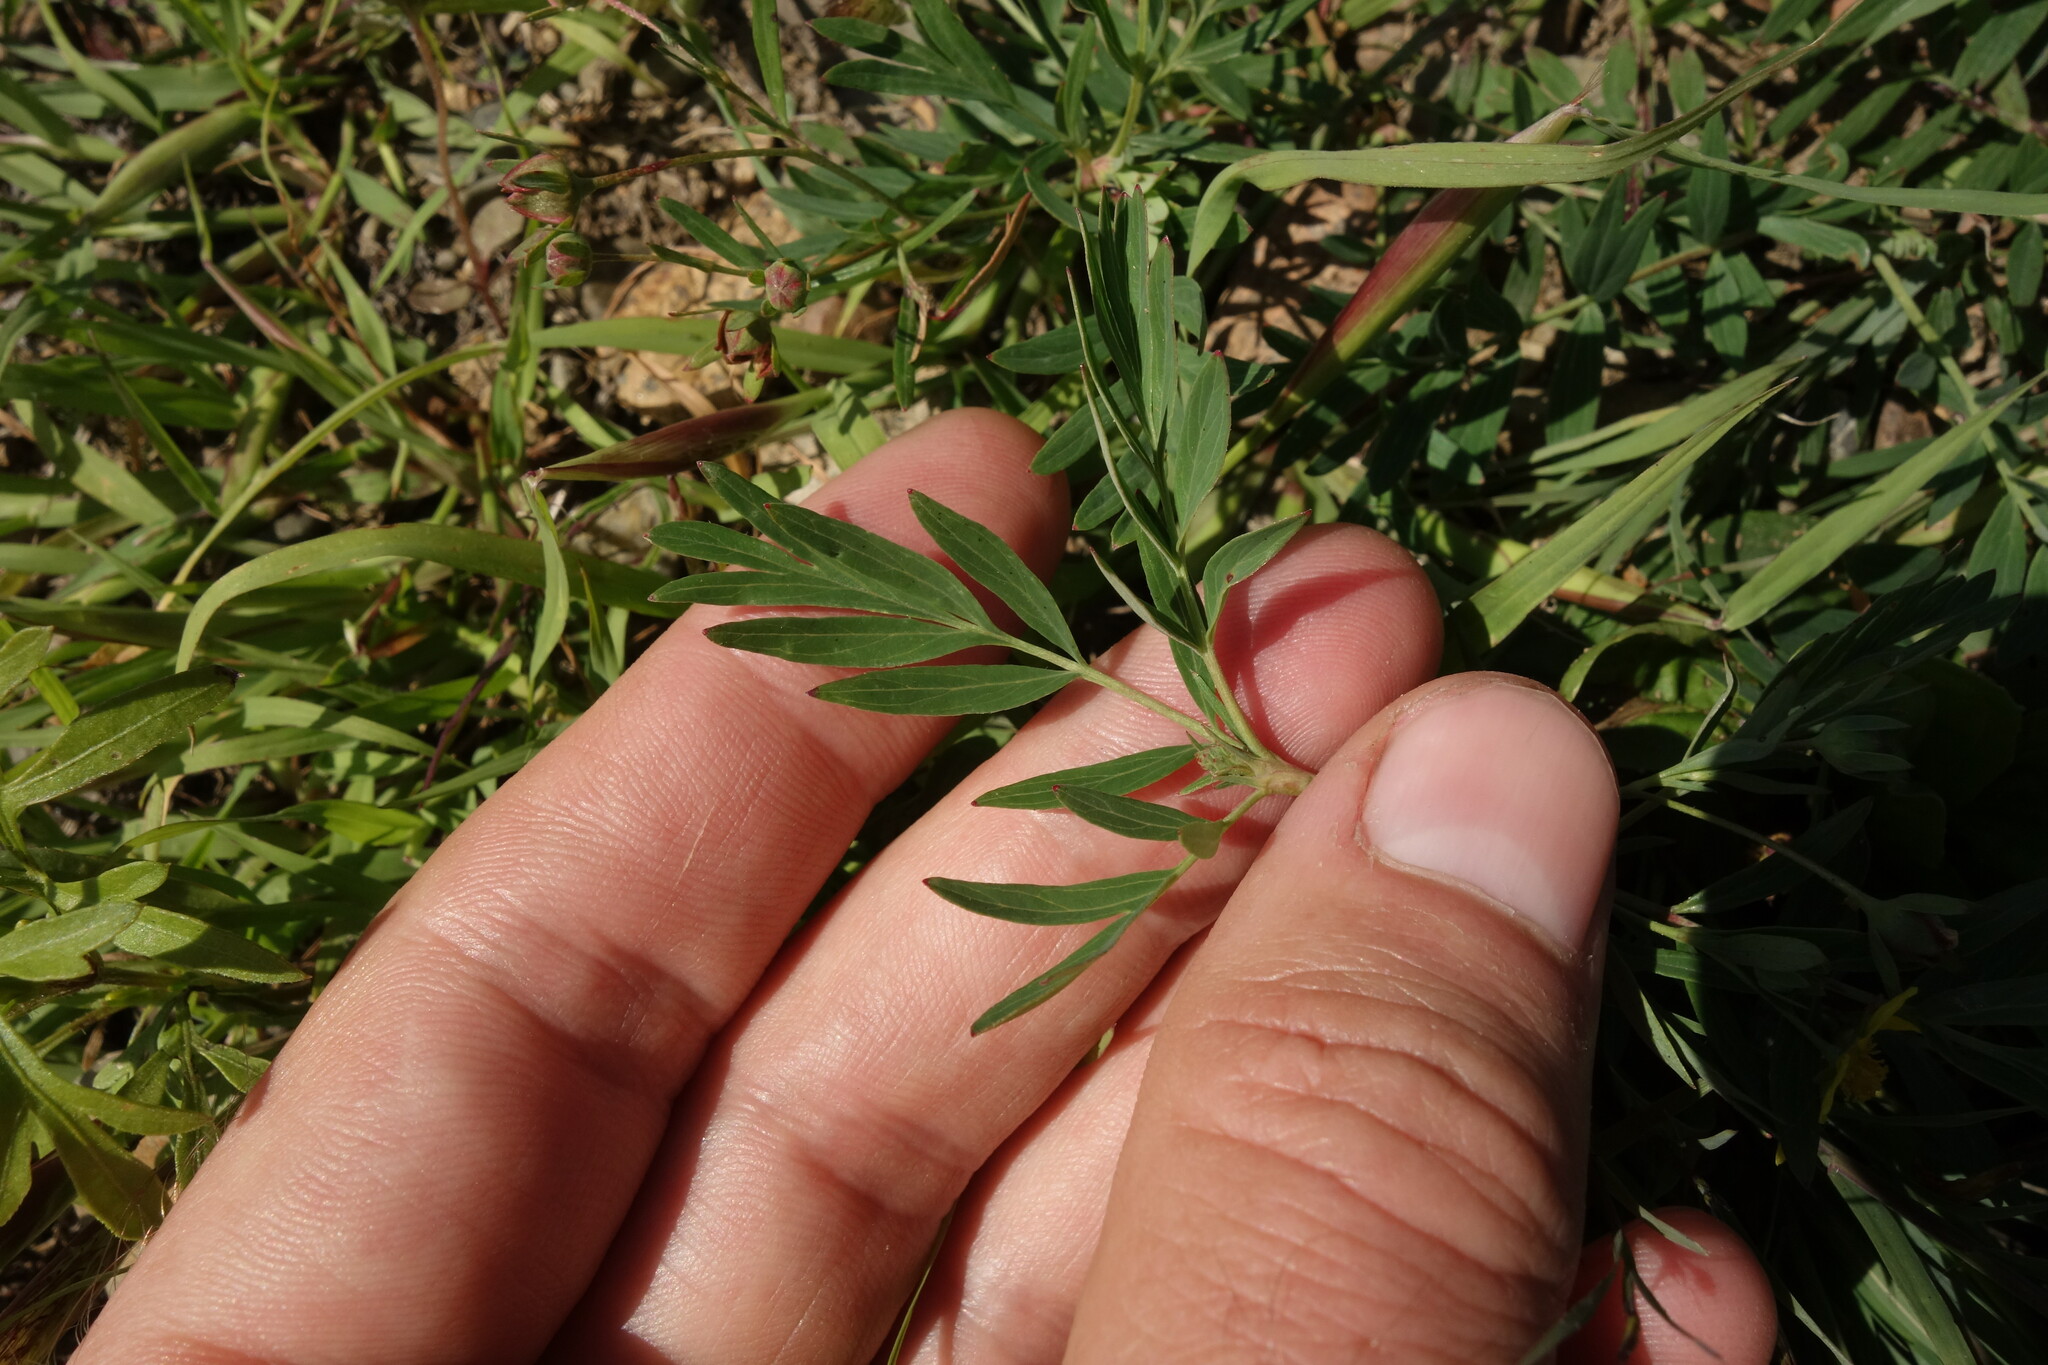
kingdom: Plantae
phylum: Tracheophyta
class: Magnoliopsida
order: Rosales
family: Rosaceae
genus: Sibbaldianthe
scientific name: Sibbaldianthe orientalis
